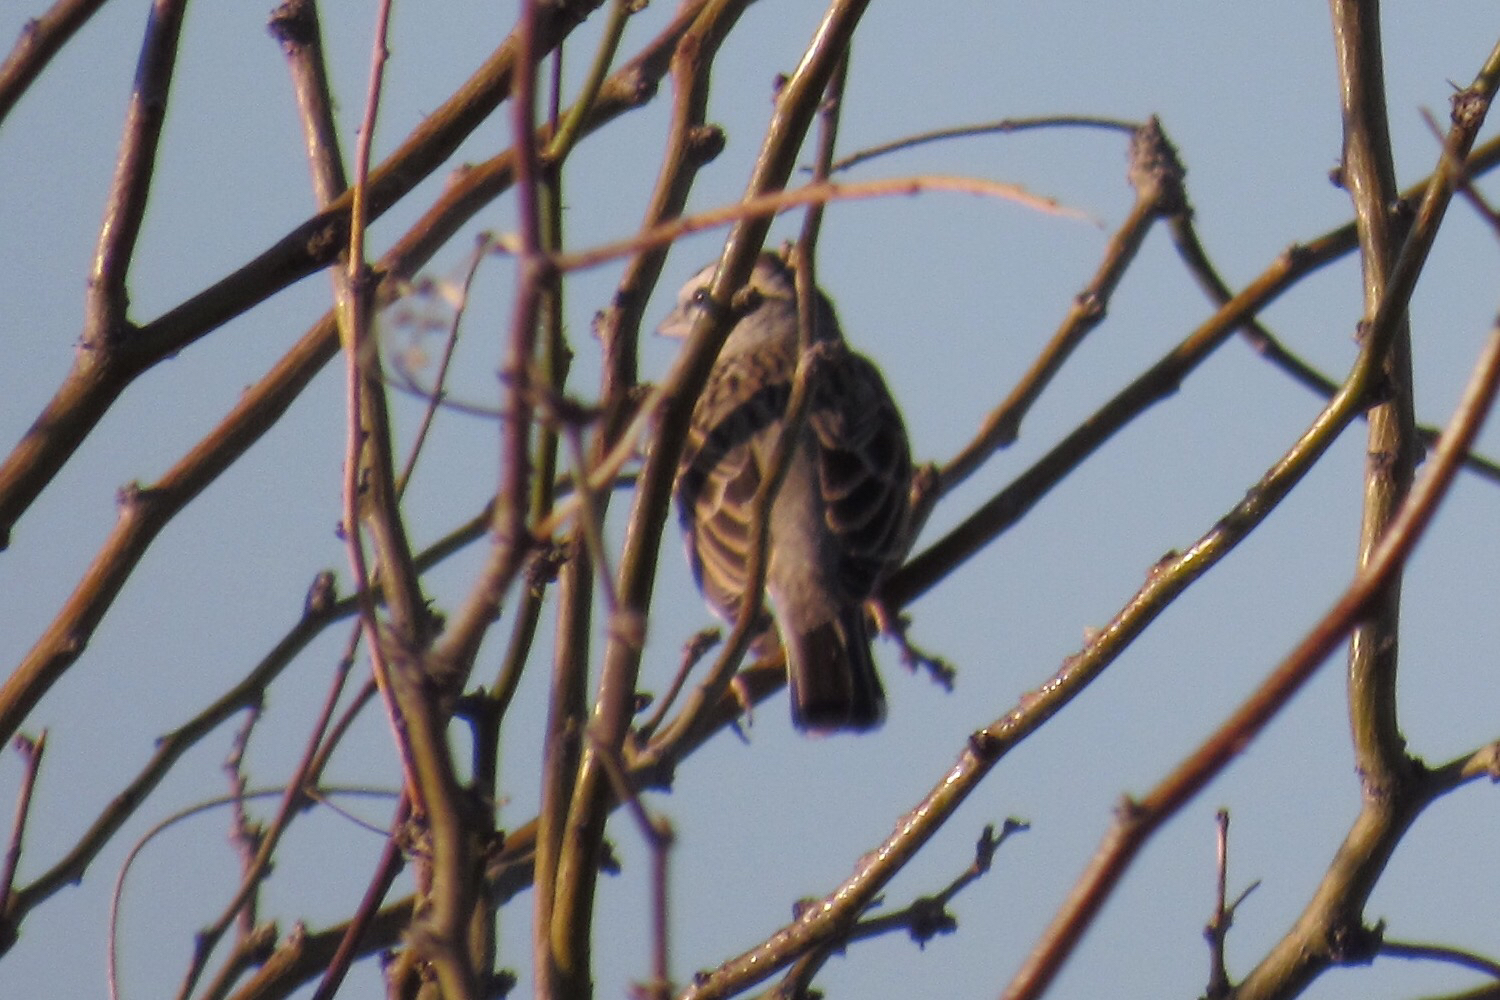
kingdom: Animalia
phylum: Chordata
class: Aves
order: Passeriformes
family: Passerellidae
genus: Chondestes
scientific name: Chondestes grammacus
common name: Lark sparrow
